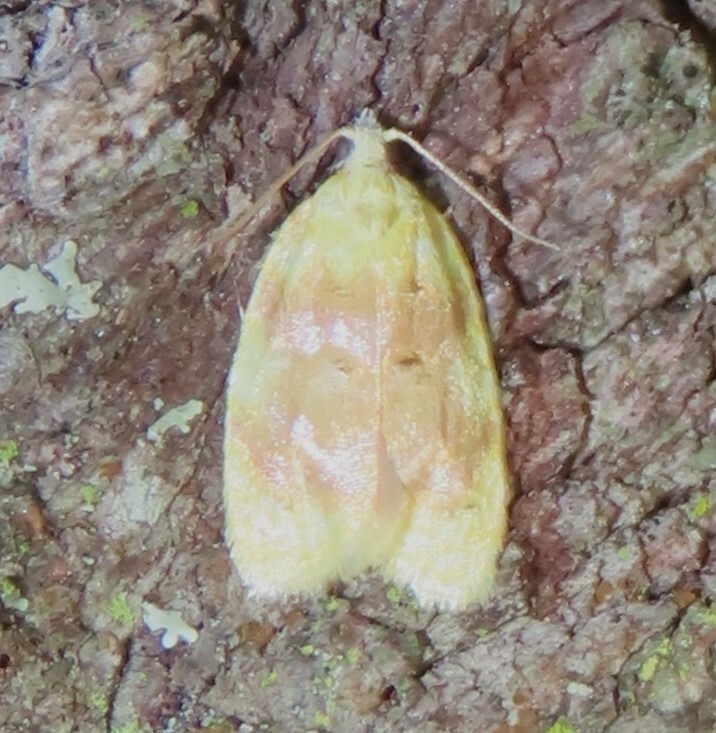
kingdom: Animalia
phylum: Arthropoda
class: Insecta
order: Lepidoptera
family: Tortricidae
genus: Acleris
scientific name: Acleris semipurpurana
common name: Oak leaftier moth
